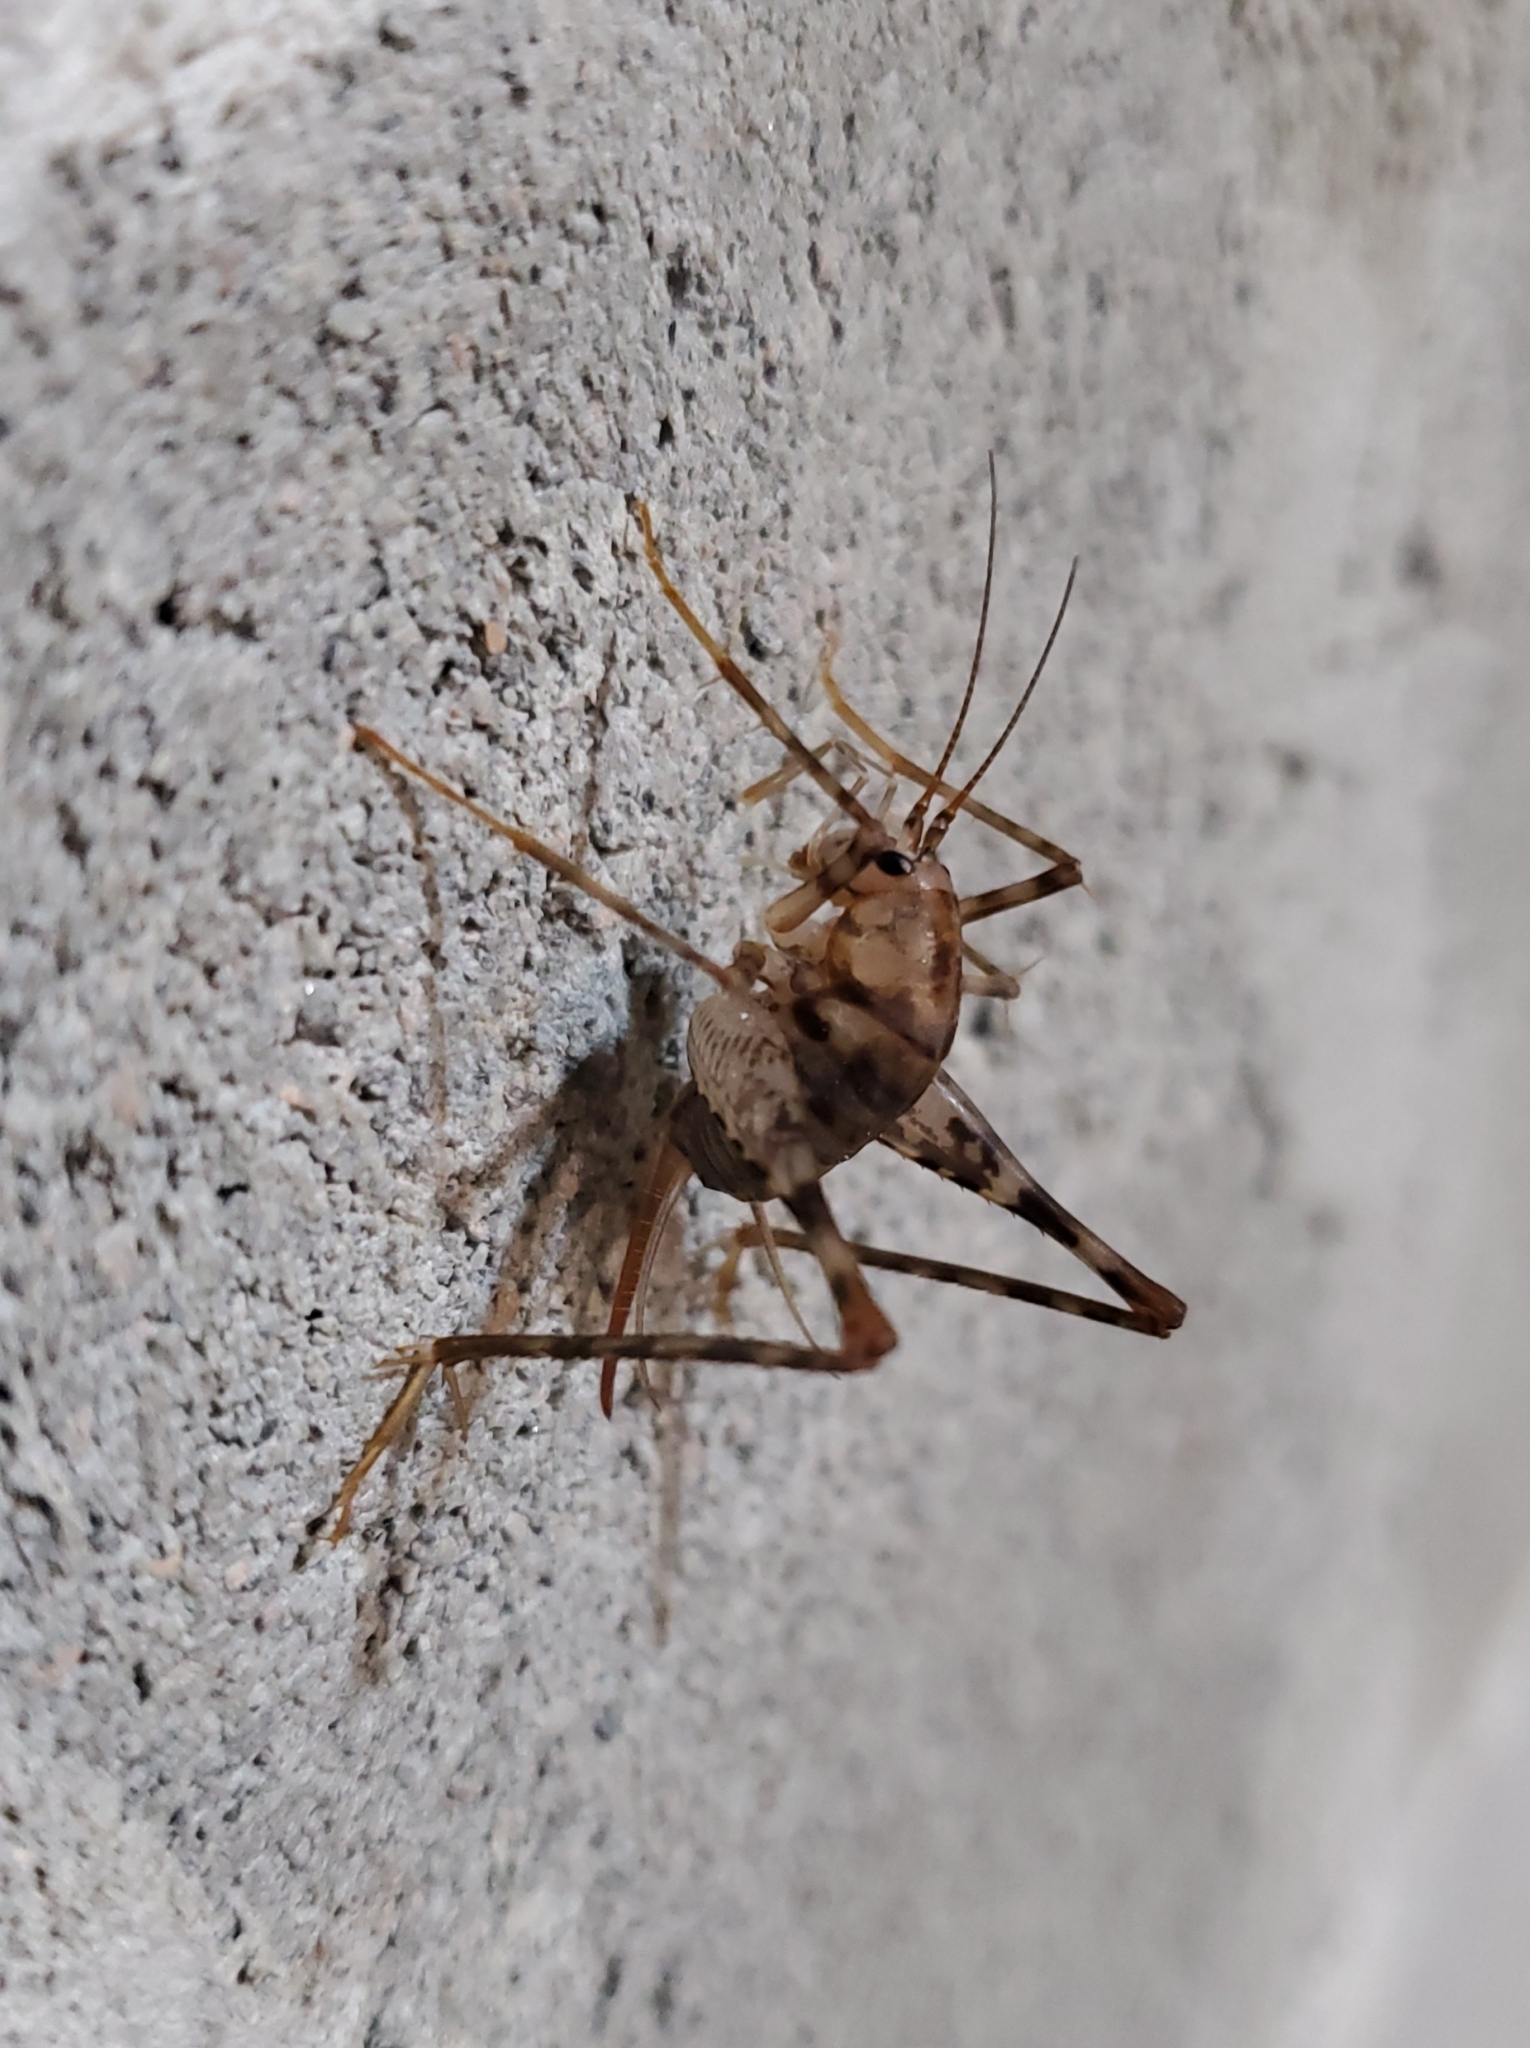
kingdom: Animalia
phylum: Arthropoda
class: Insecta
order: Orthoptera
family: Rhaphidophoridae
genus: Tachycines
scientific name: Tachycines asynamorus
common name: Greenhouse camel cricket
